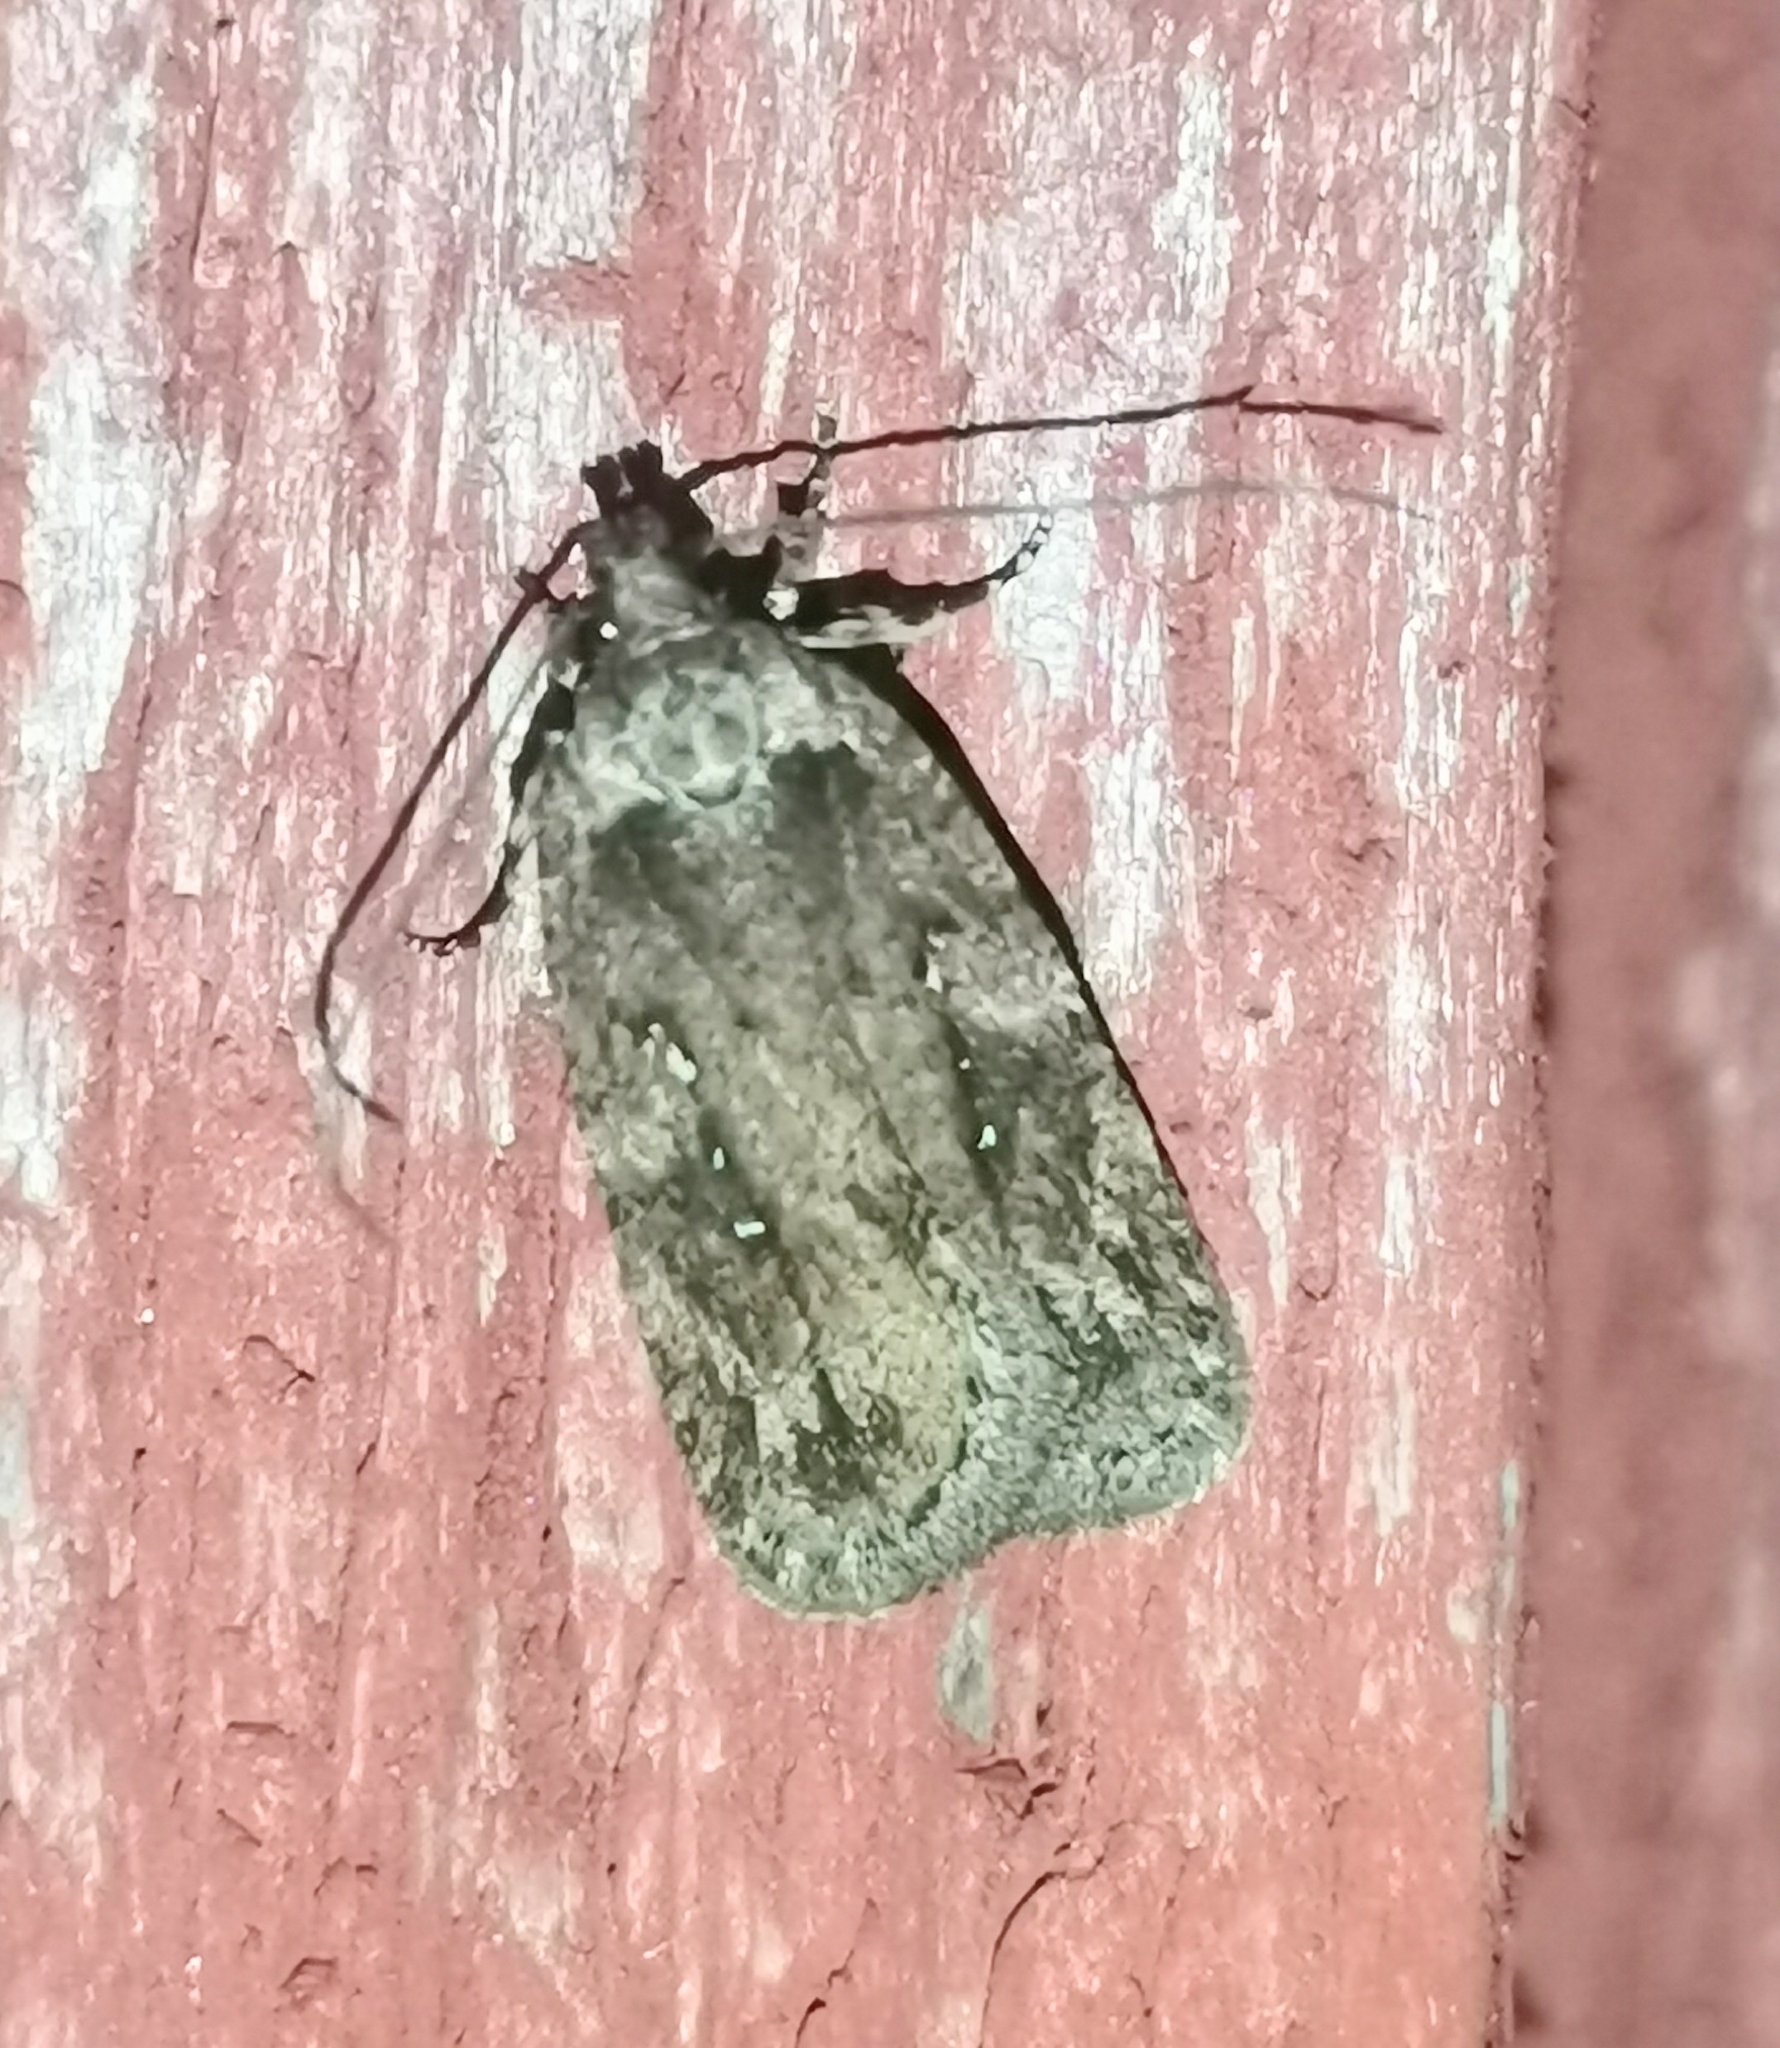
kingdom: Animalia
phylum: Arthropoda
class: Insecta
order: Lepidoptera
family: Depressariidae
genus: Exaeretia
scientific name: Exaeretia ciniflonella
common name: Scotch flat-body
